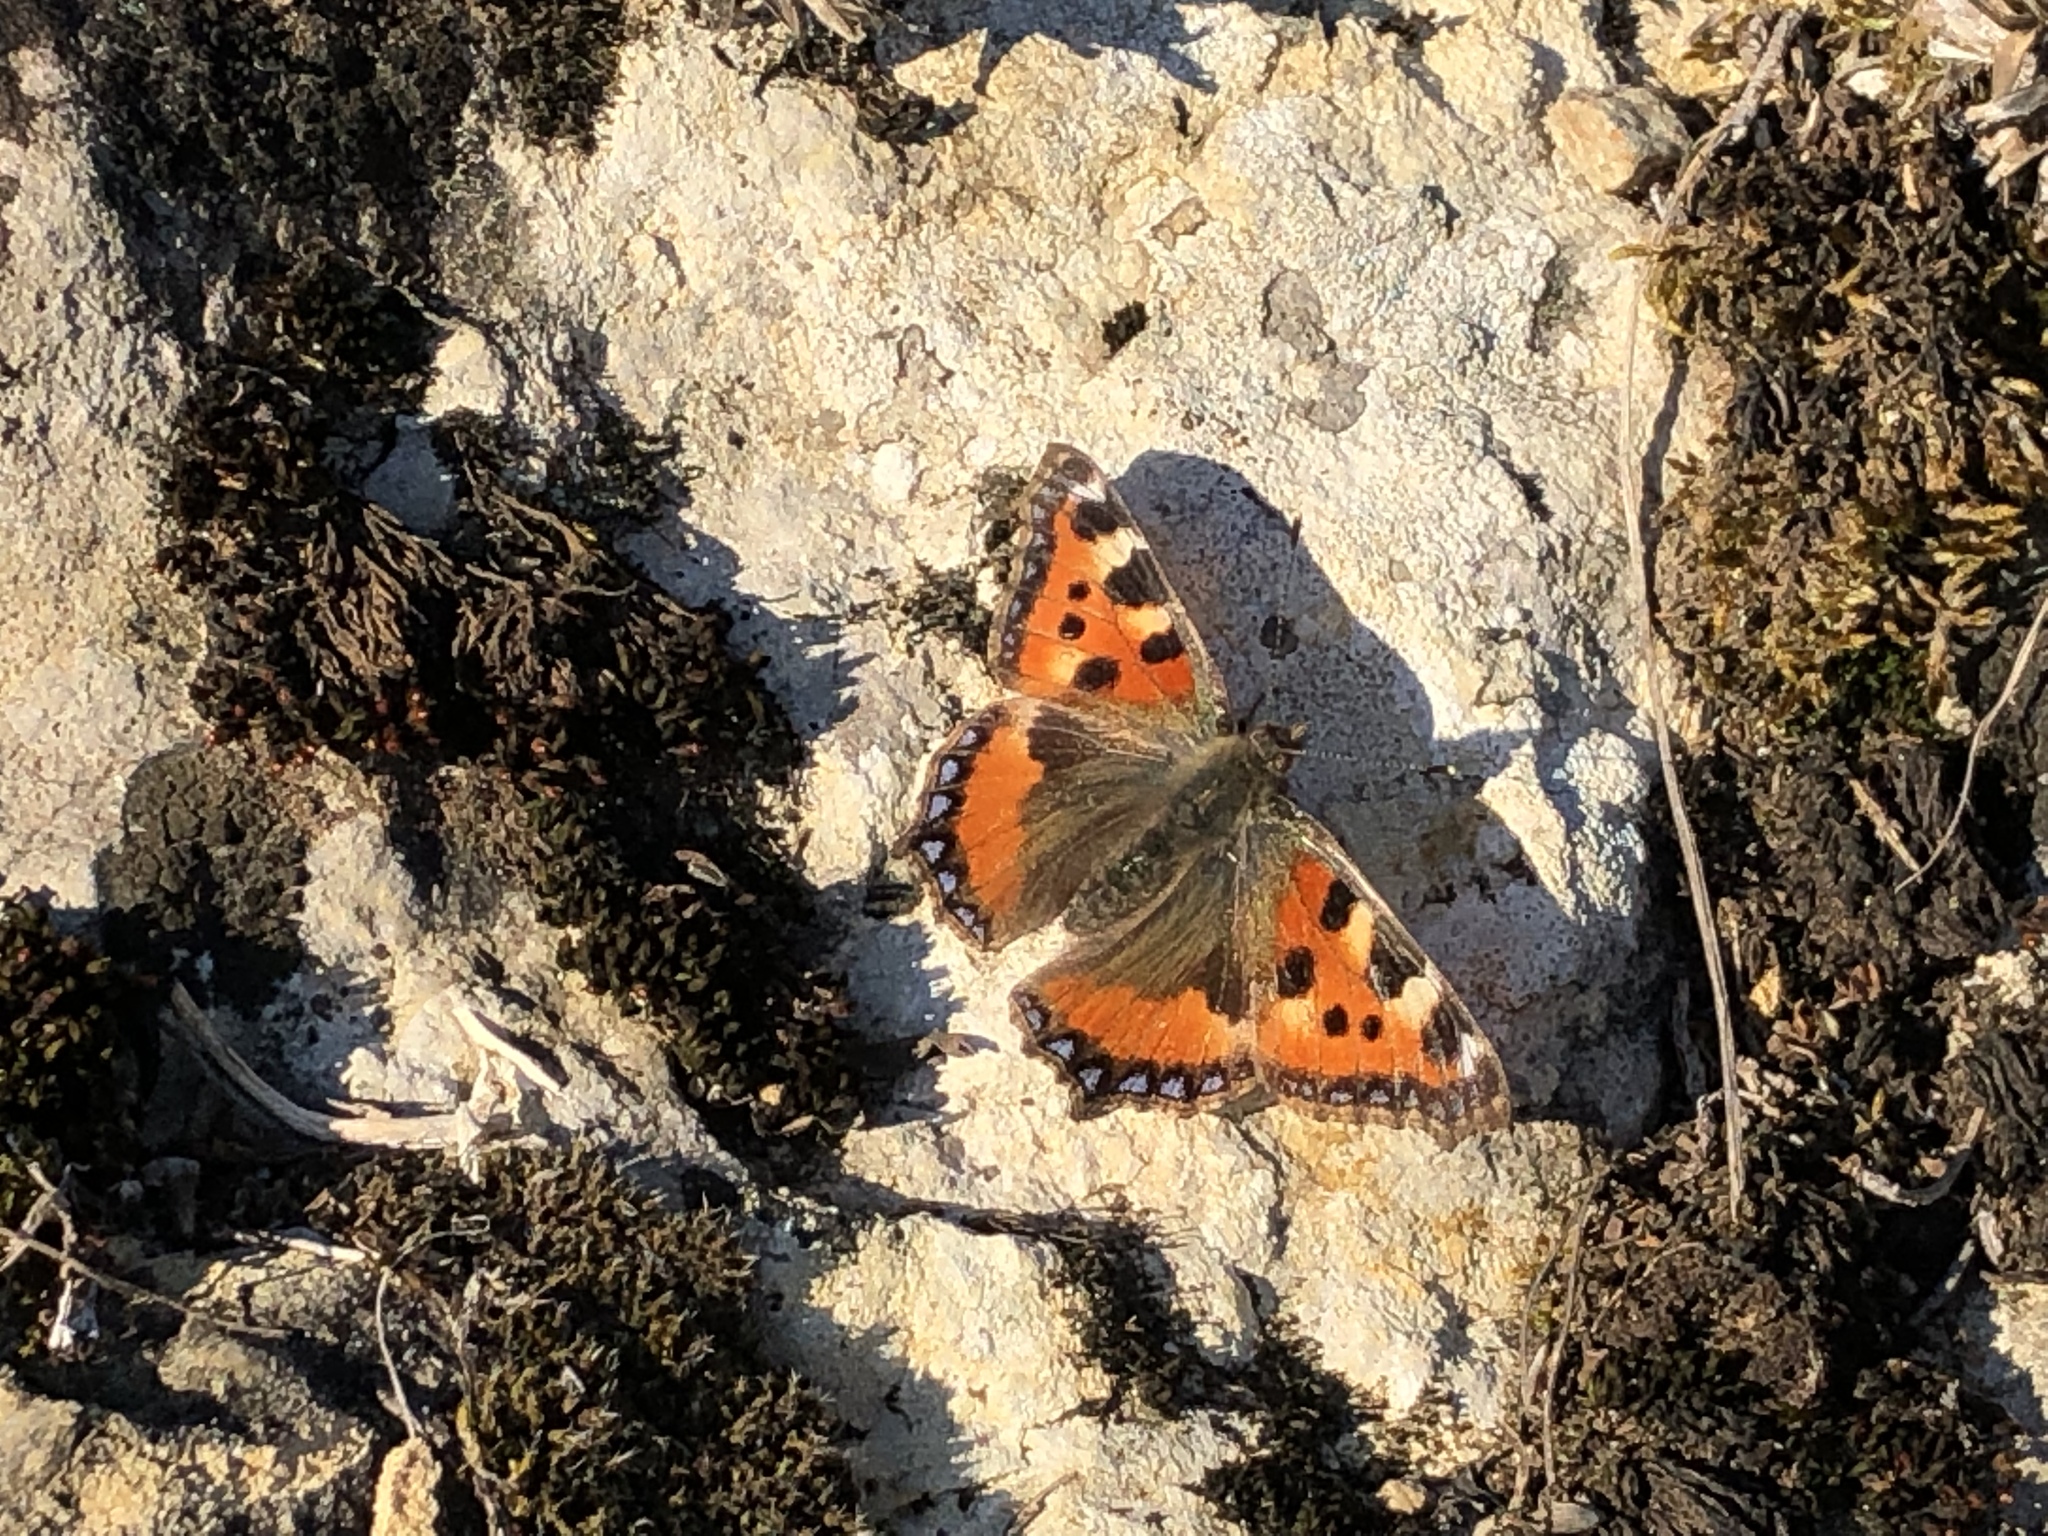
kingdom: Animalia
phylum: Arthropoda
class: Insecta
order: Lepidoptera
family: Nymphalidae
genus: Aglais
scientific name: Aglais urticae
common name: Small tortoiseshell
